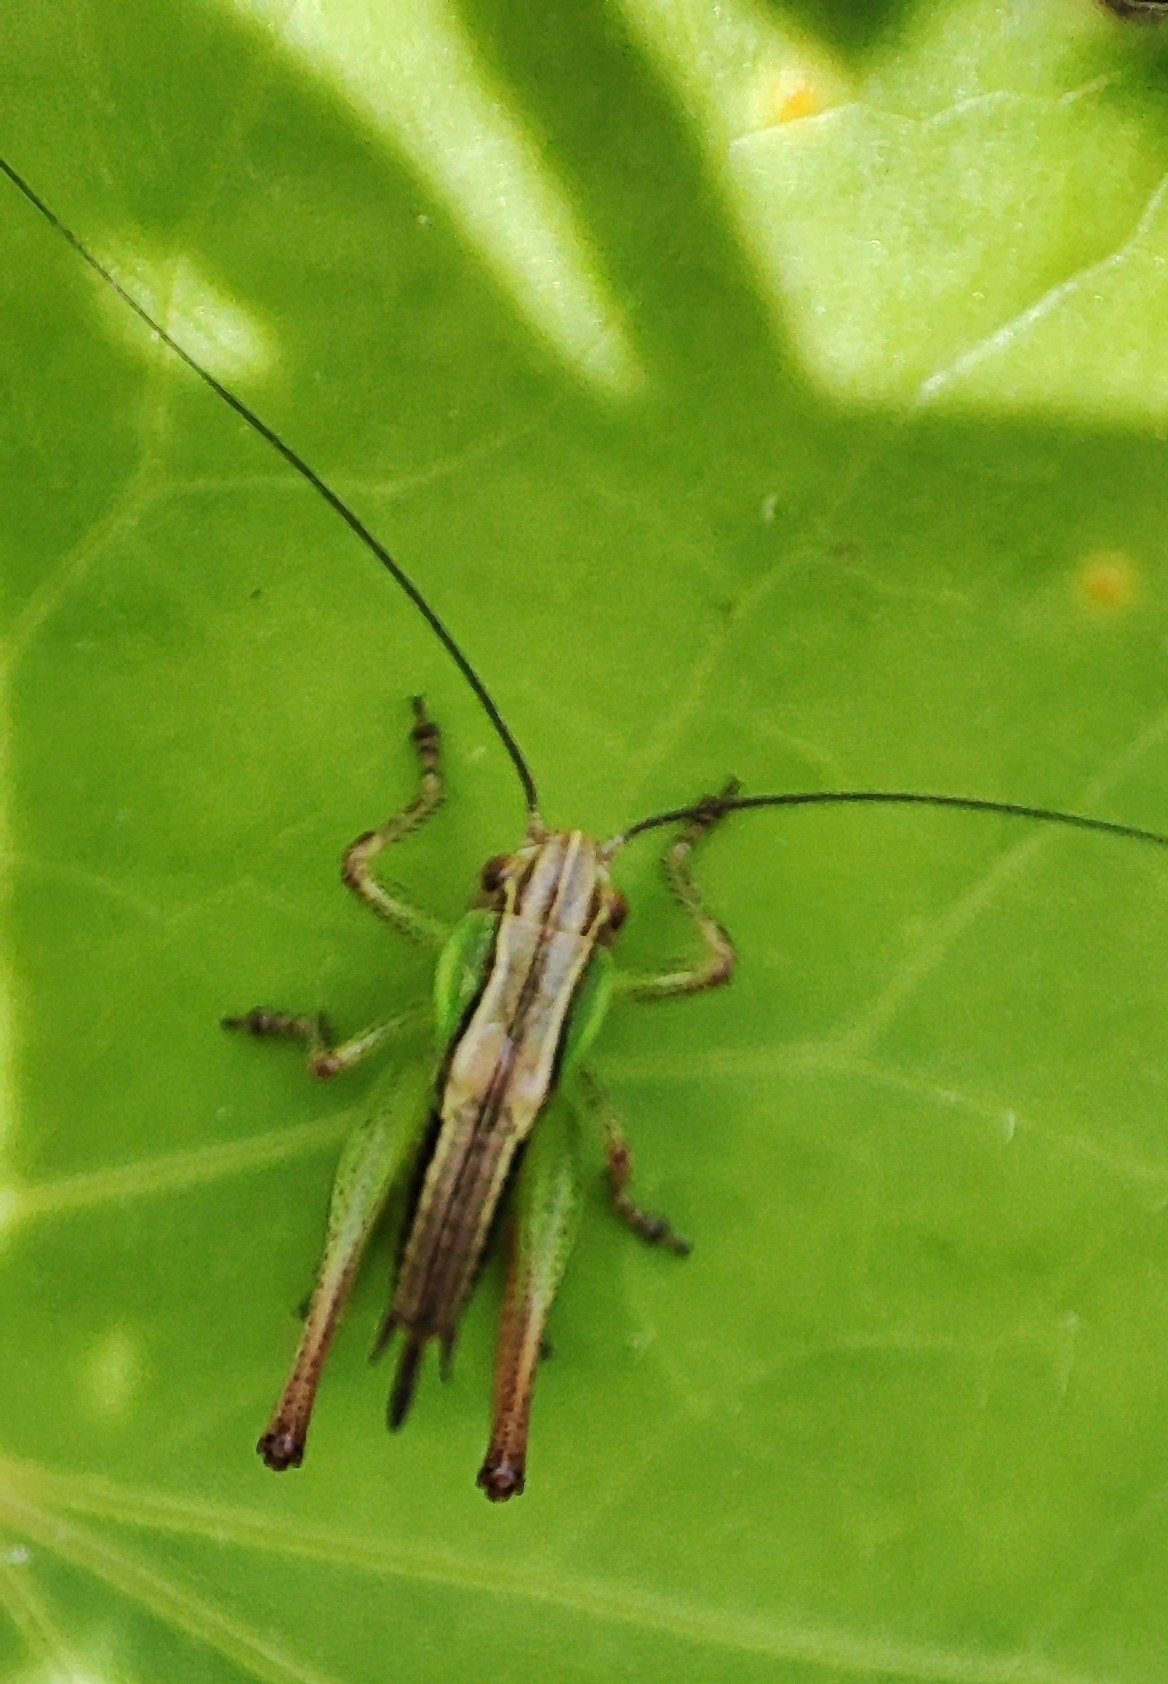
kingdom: Animalia
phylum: Arthropoda
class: Insecta
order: Orthoptera
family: Tettigoniidae
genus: Roeseliana
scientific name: Roeseliana roeselii
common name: Roesel's bush cricket
